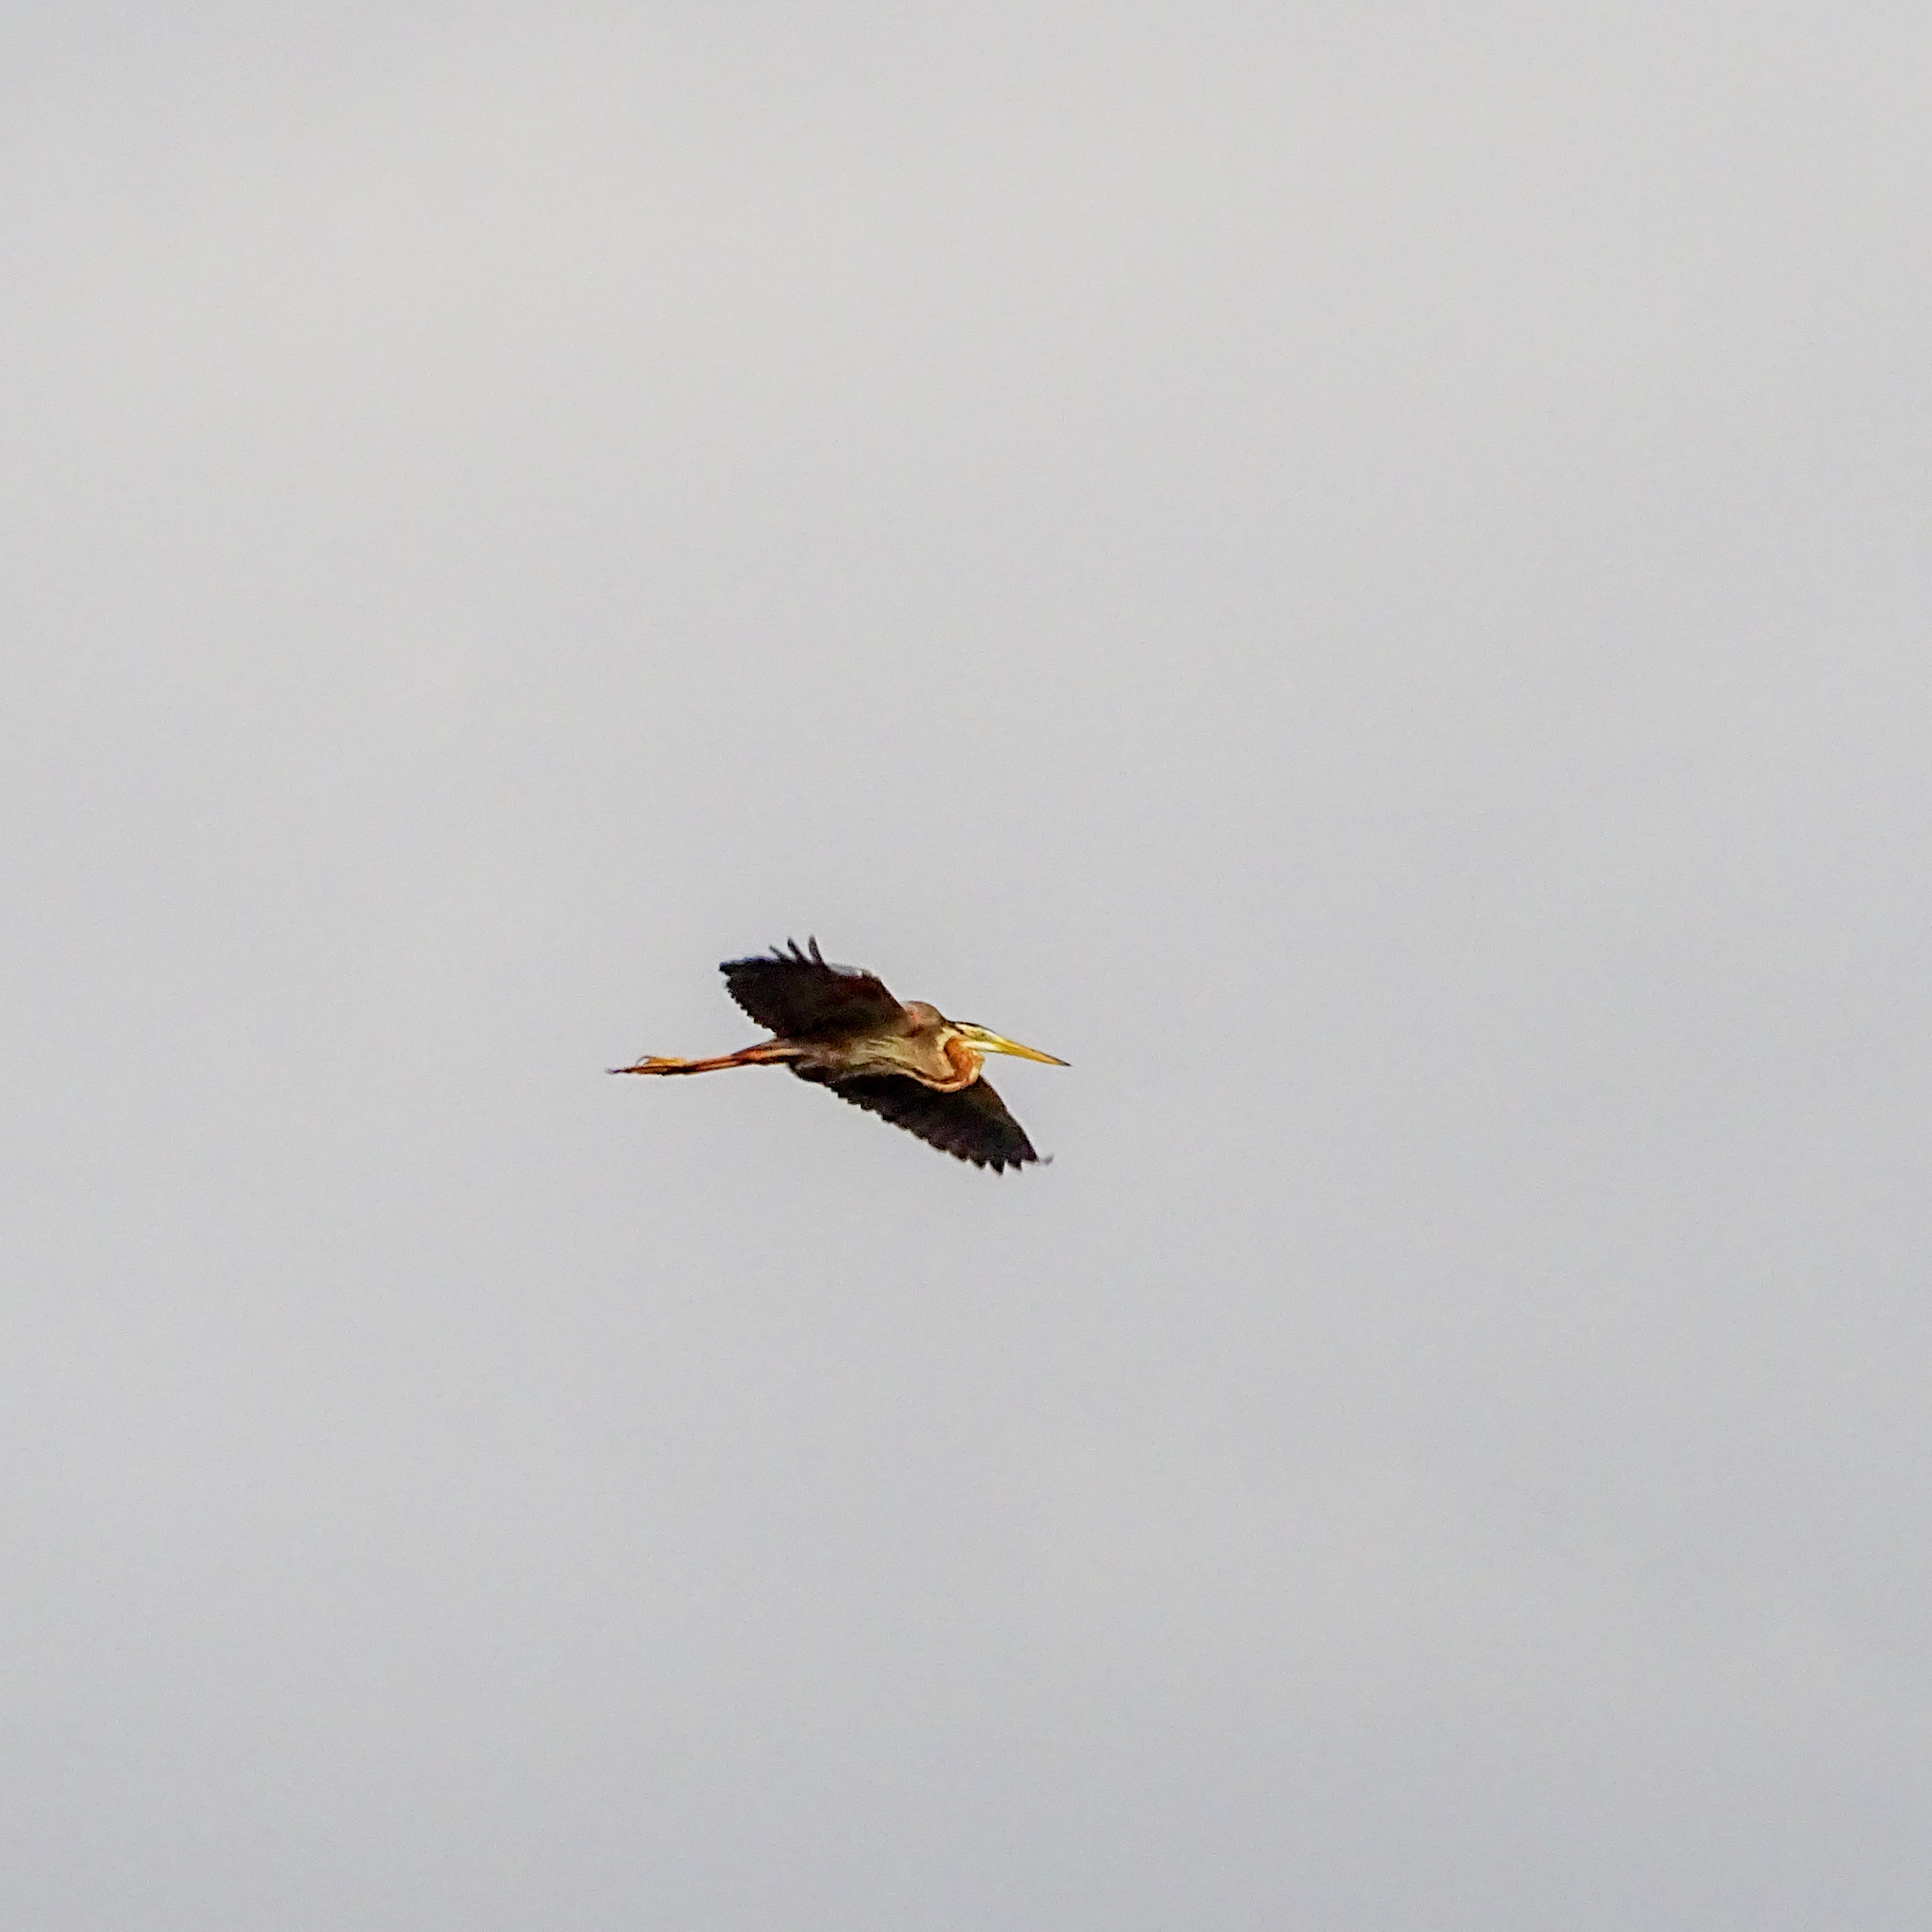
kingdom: Animalia
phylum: Chordata
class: Aves
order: Pelecaniformes
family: Ardeidae
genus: Ardea
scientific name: Ardea purpurea
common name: Purple heron
